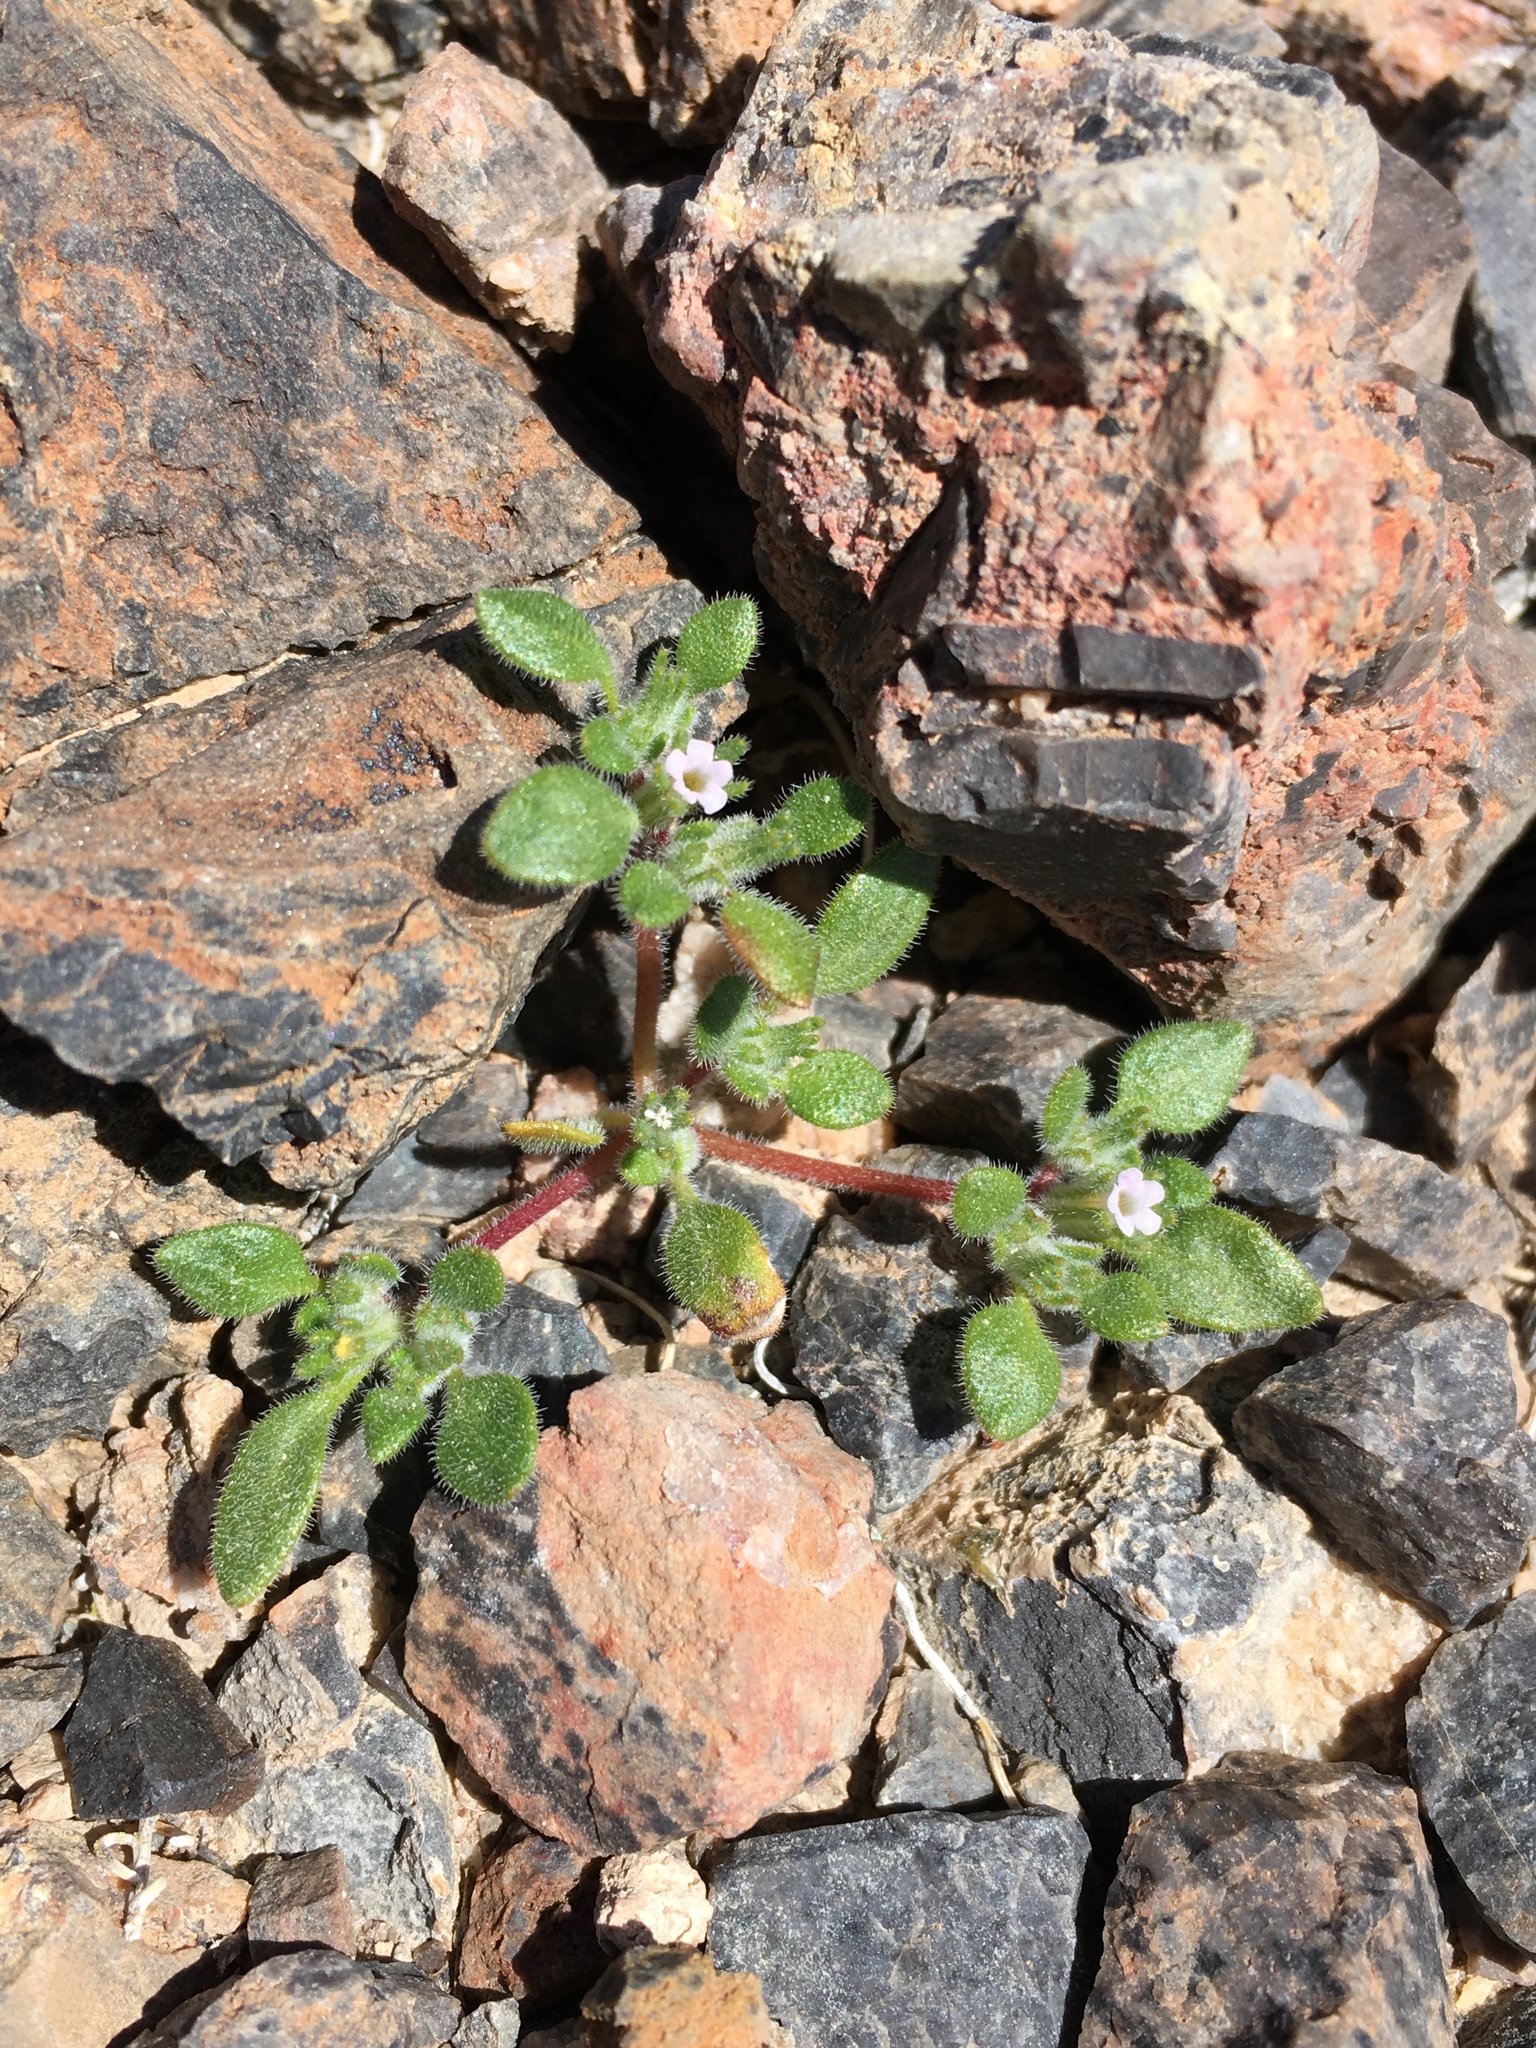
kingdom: Plantae
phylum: Tracheophyta
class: Magnoliopsida
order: Boraginales
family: Namaceae
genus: Nama
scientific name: Nama pusilla
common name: Eggleaf nama
